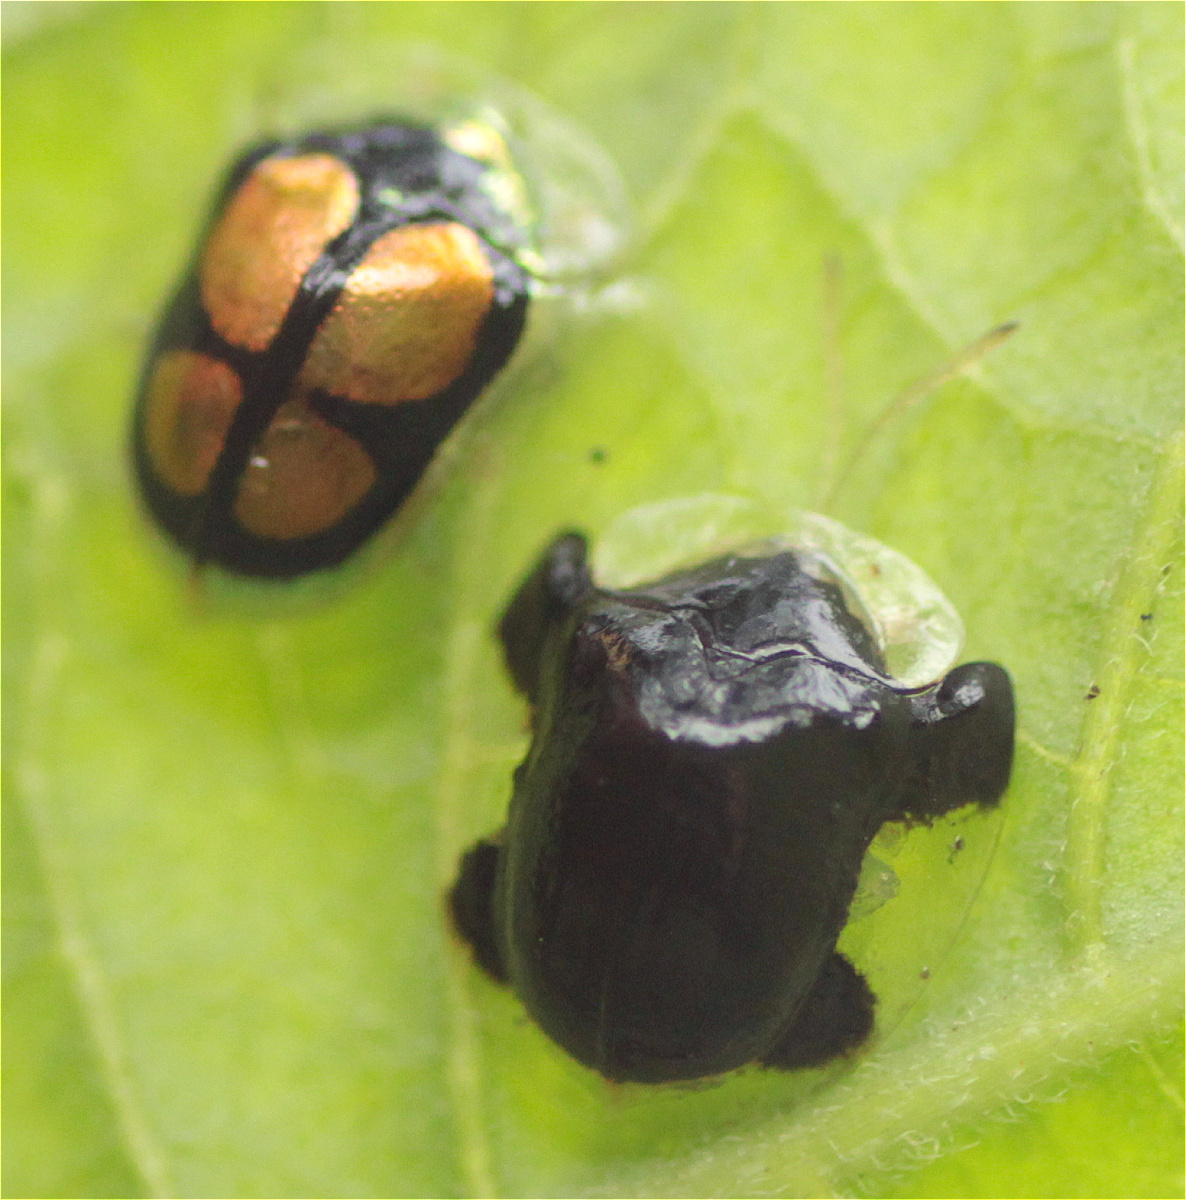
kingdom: Animalia
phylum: Arthropoda
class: Insecta
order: Coleoptera
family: Chrysomelidae
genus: Microctenochira
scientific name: Microctenochira diabolica
